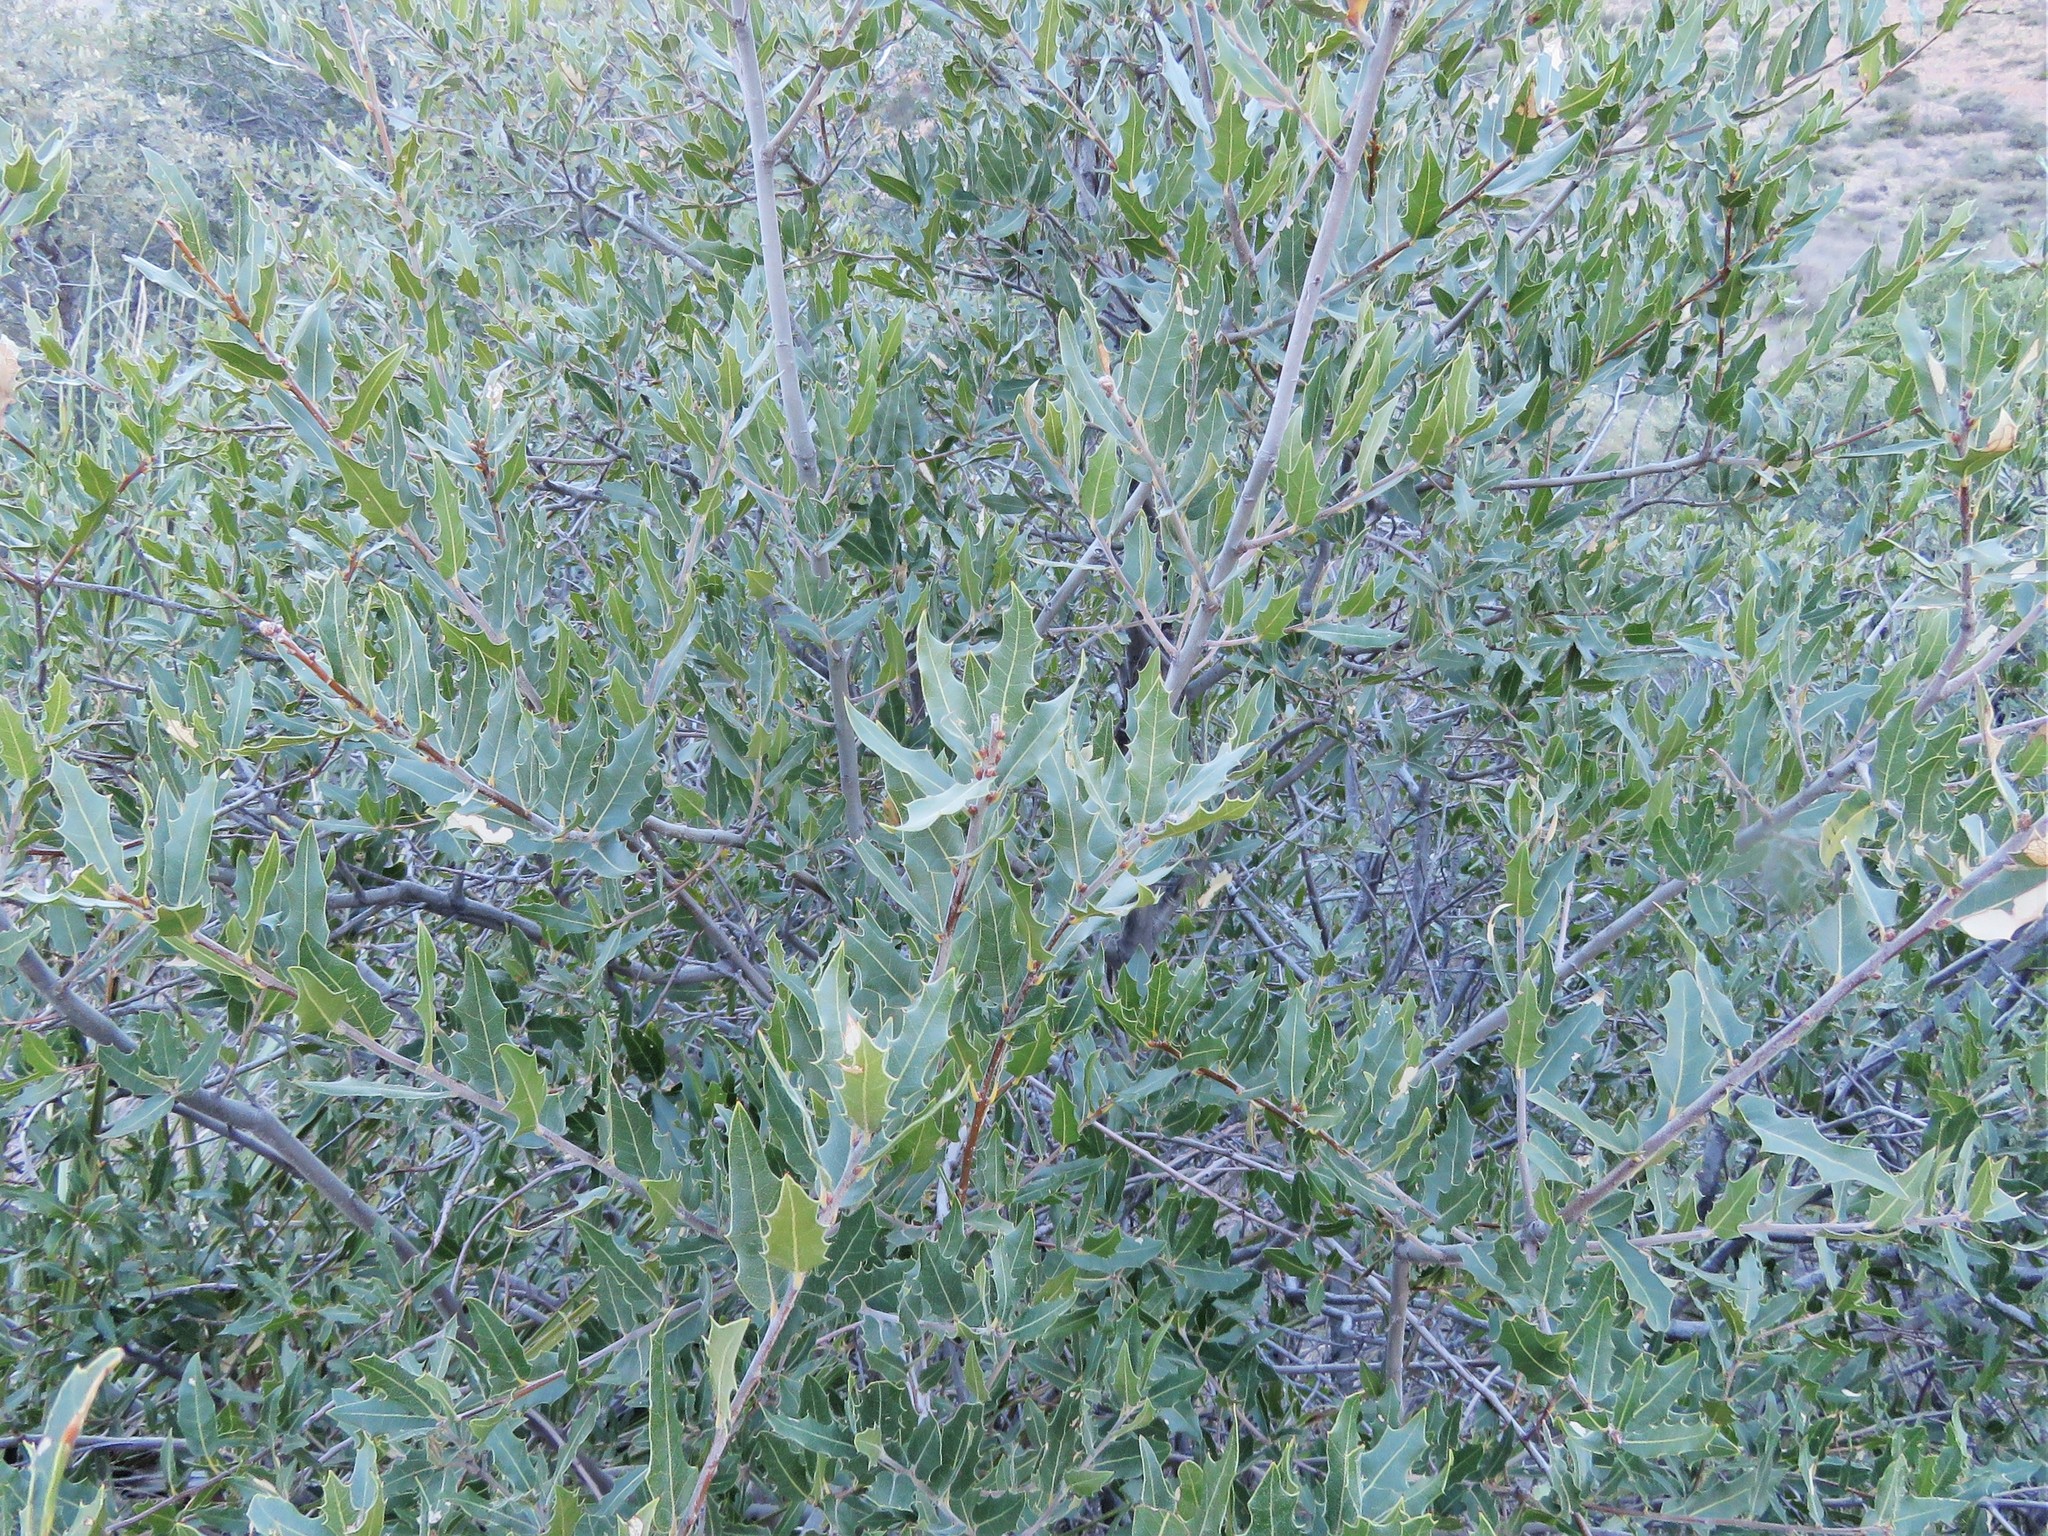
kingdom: Plantae
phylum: Tracheophyta
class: Magnoliopsida
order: Fagales
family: Fagaceae
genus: Quercus
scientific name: Quercus emoryi
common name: Emory oak
